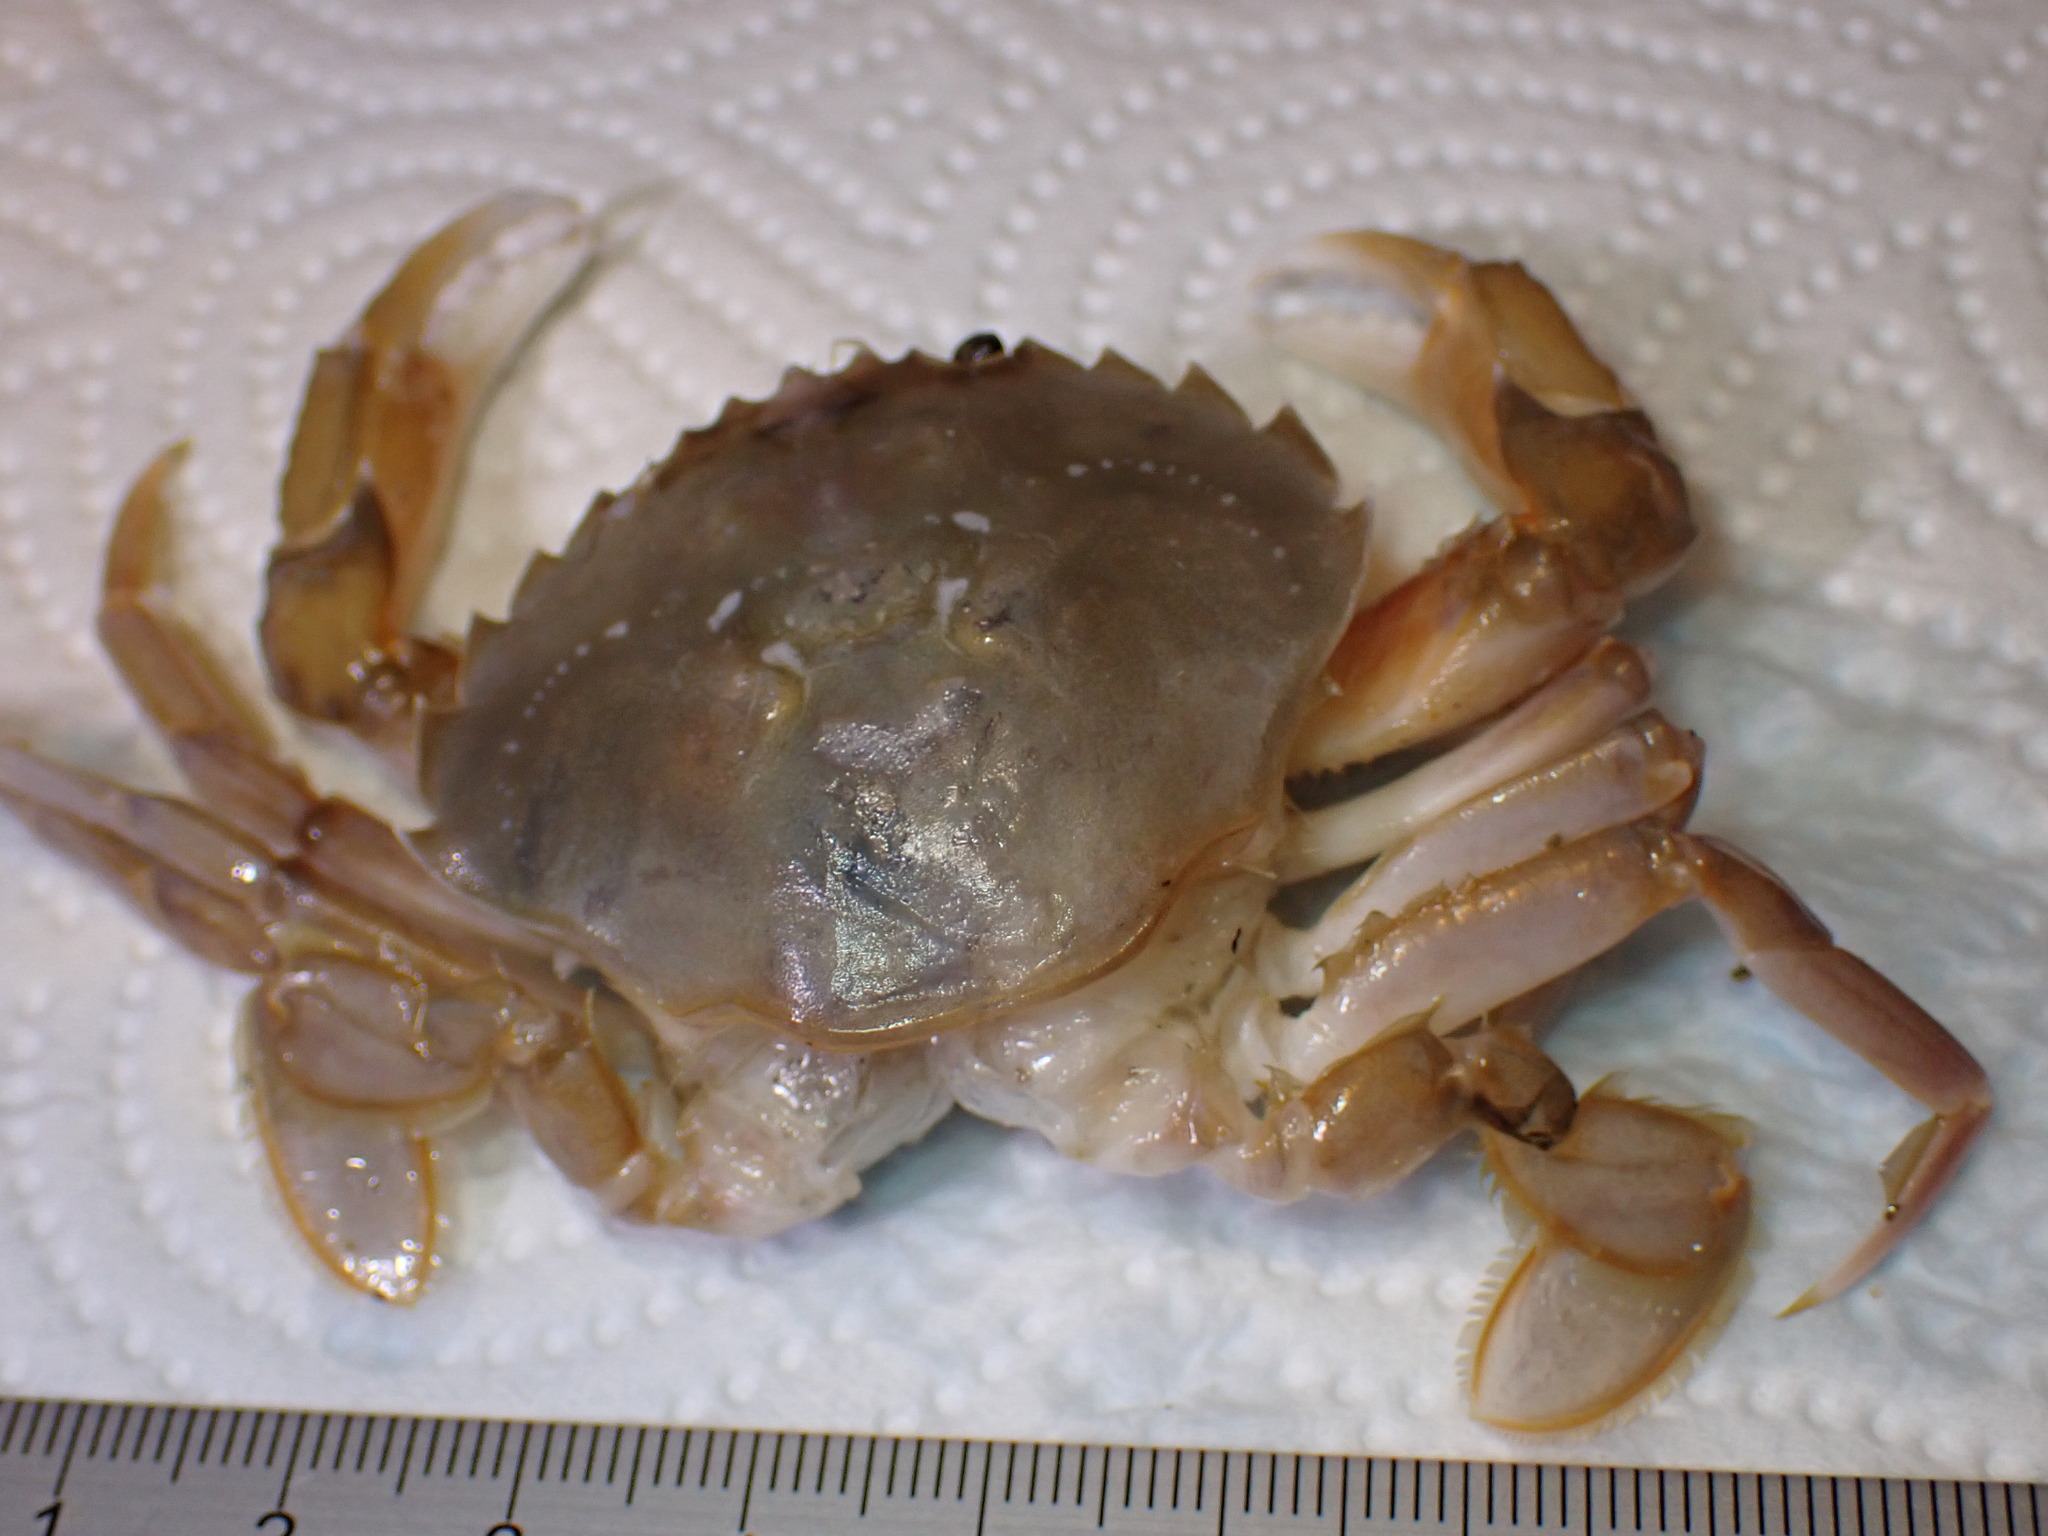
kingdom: Animalia
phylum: Arthropoda
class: Malacostraca
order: Decapoda
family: Polybiidae
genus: Liocarcinus
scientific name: Liocarcinus holsatus
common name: Flying crab
